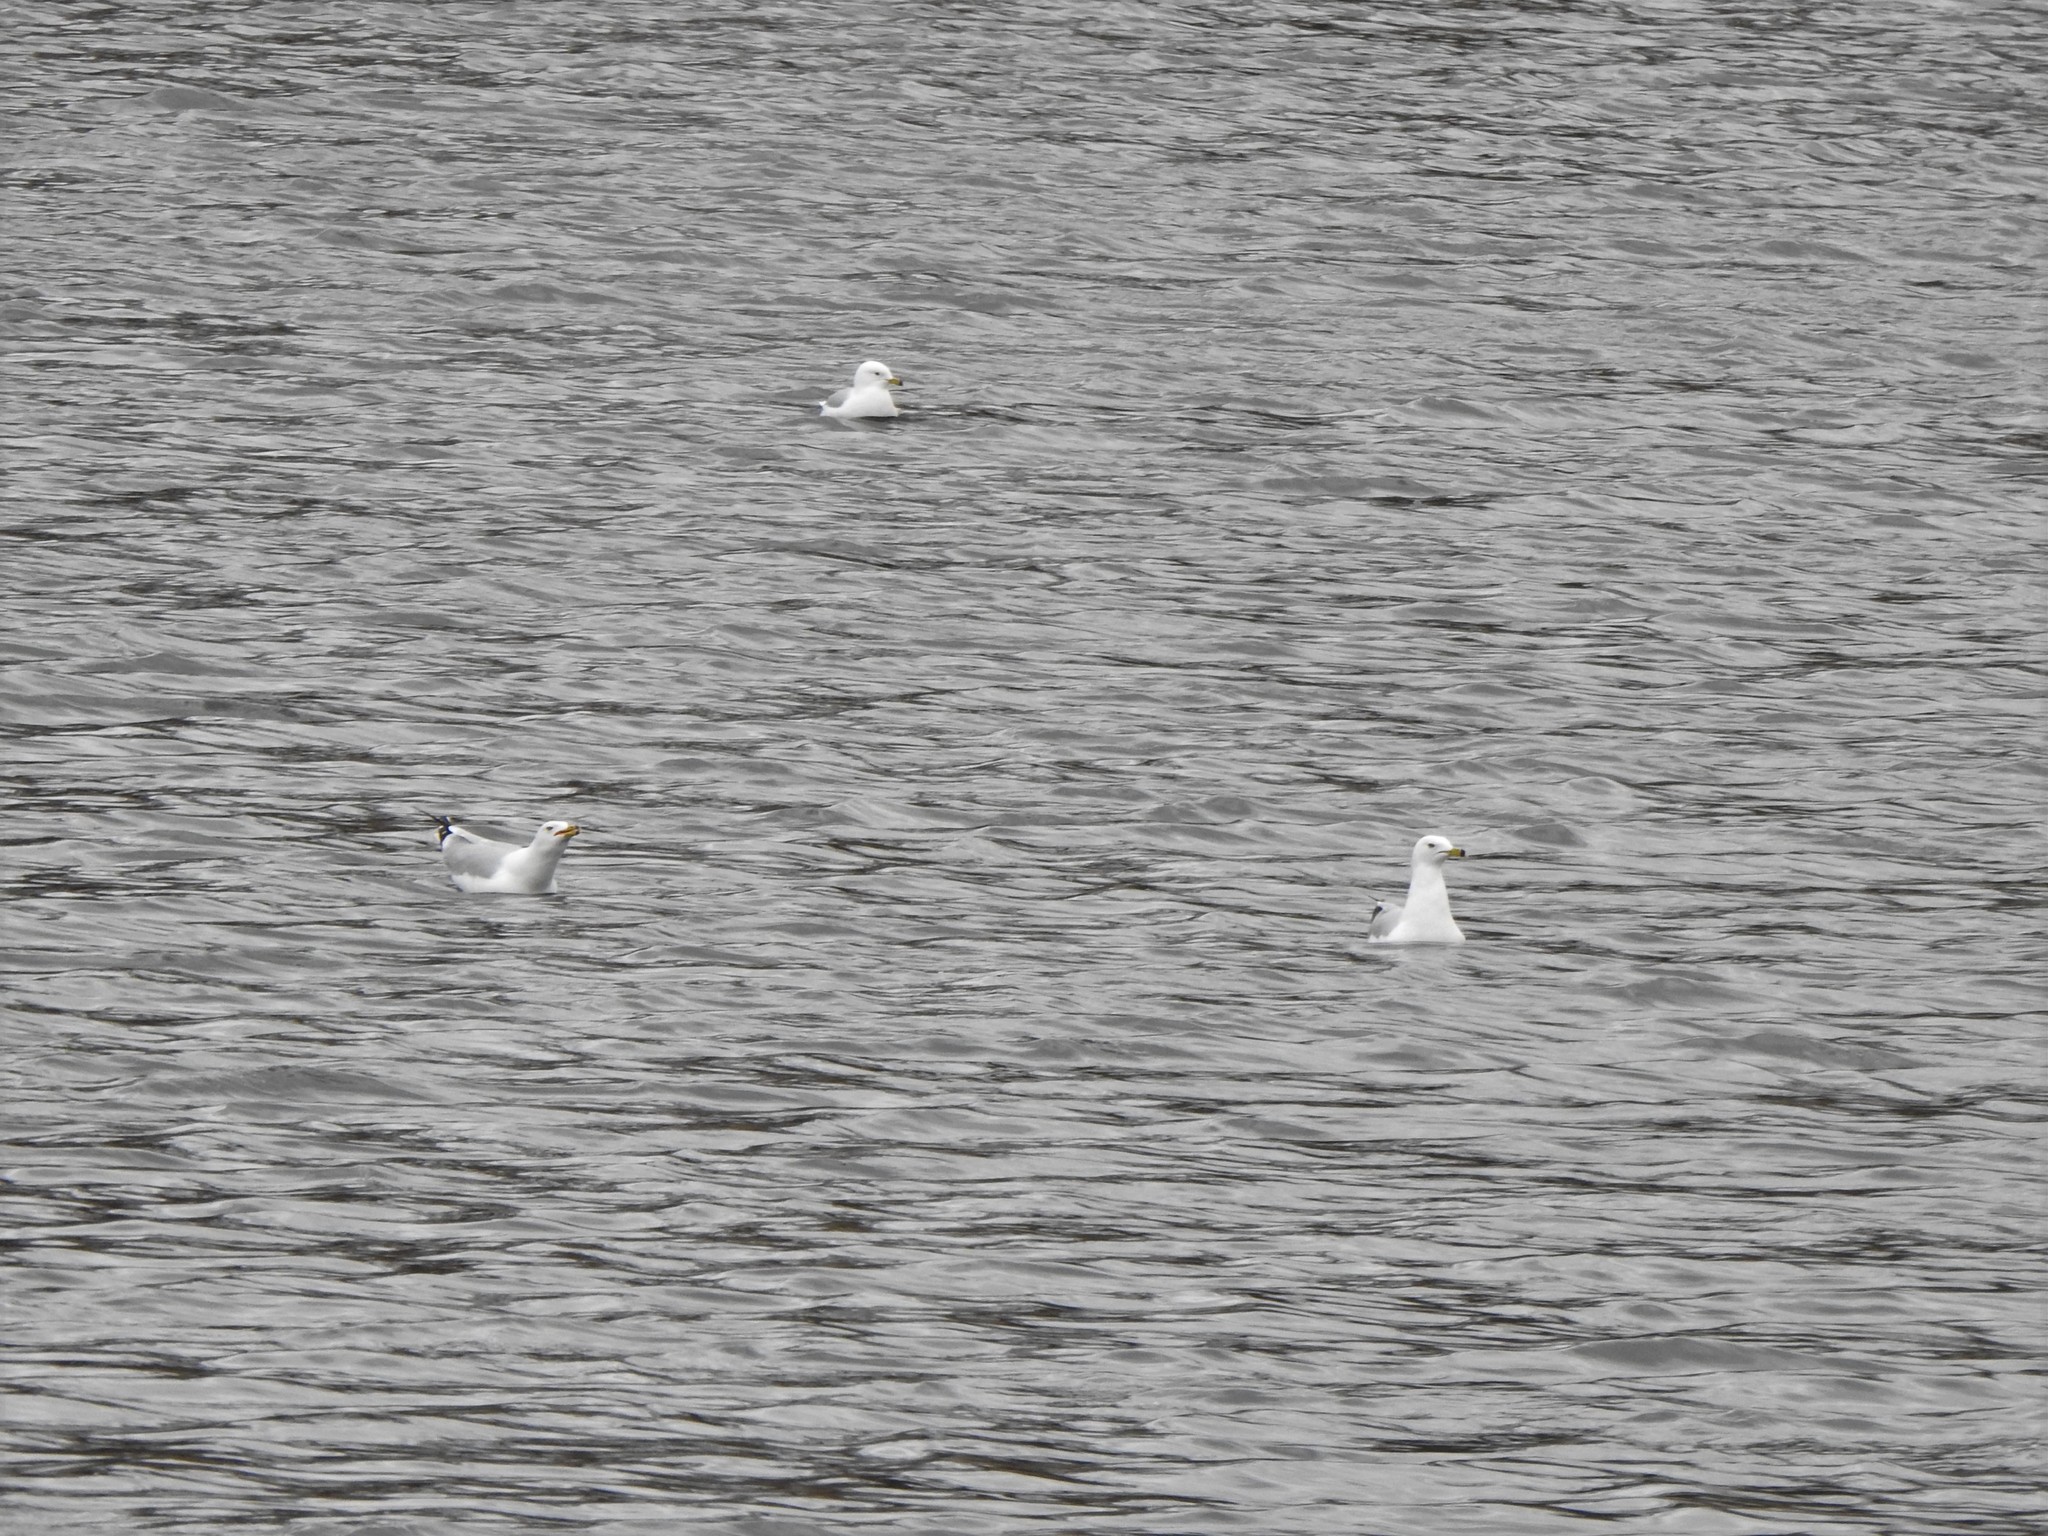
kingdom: Animalia
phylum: Chordata
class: Aves
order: Charadriiformes
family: Laridae
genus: Larus
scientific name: Larus delawarensis
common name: Ring-billed gull
